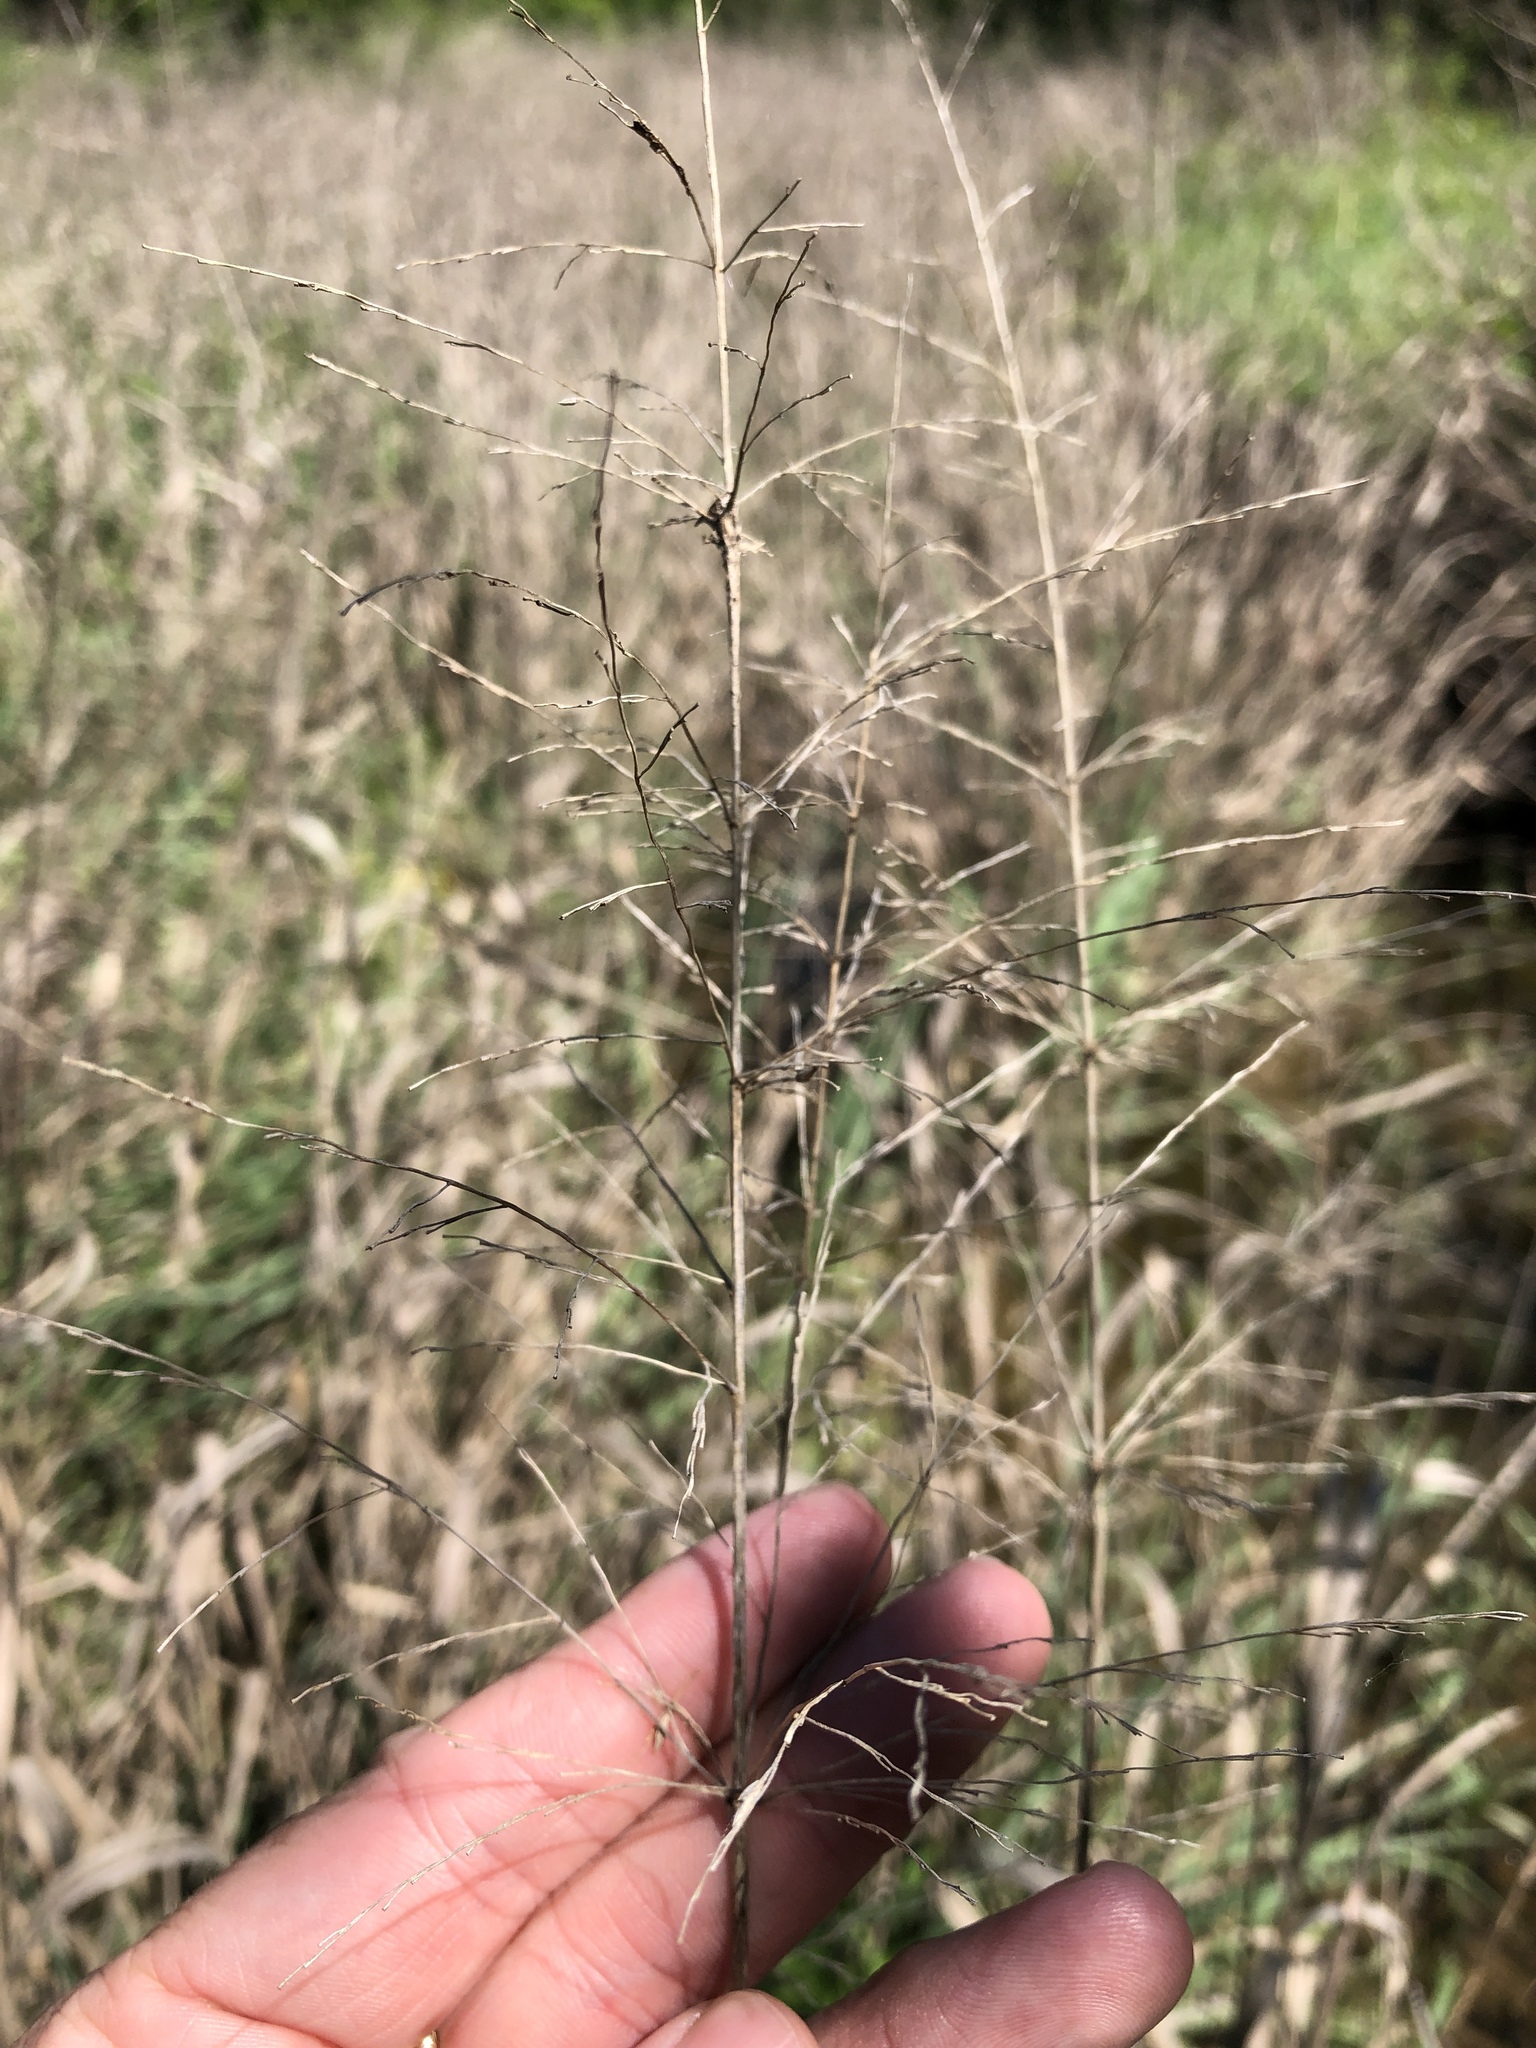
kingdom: Plantae
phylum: Tracheophyta
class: Liliopsida
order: Poales
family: Poaceae
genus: Panicum
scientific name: Panicum virgatum
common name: Switchgrass
